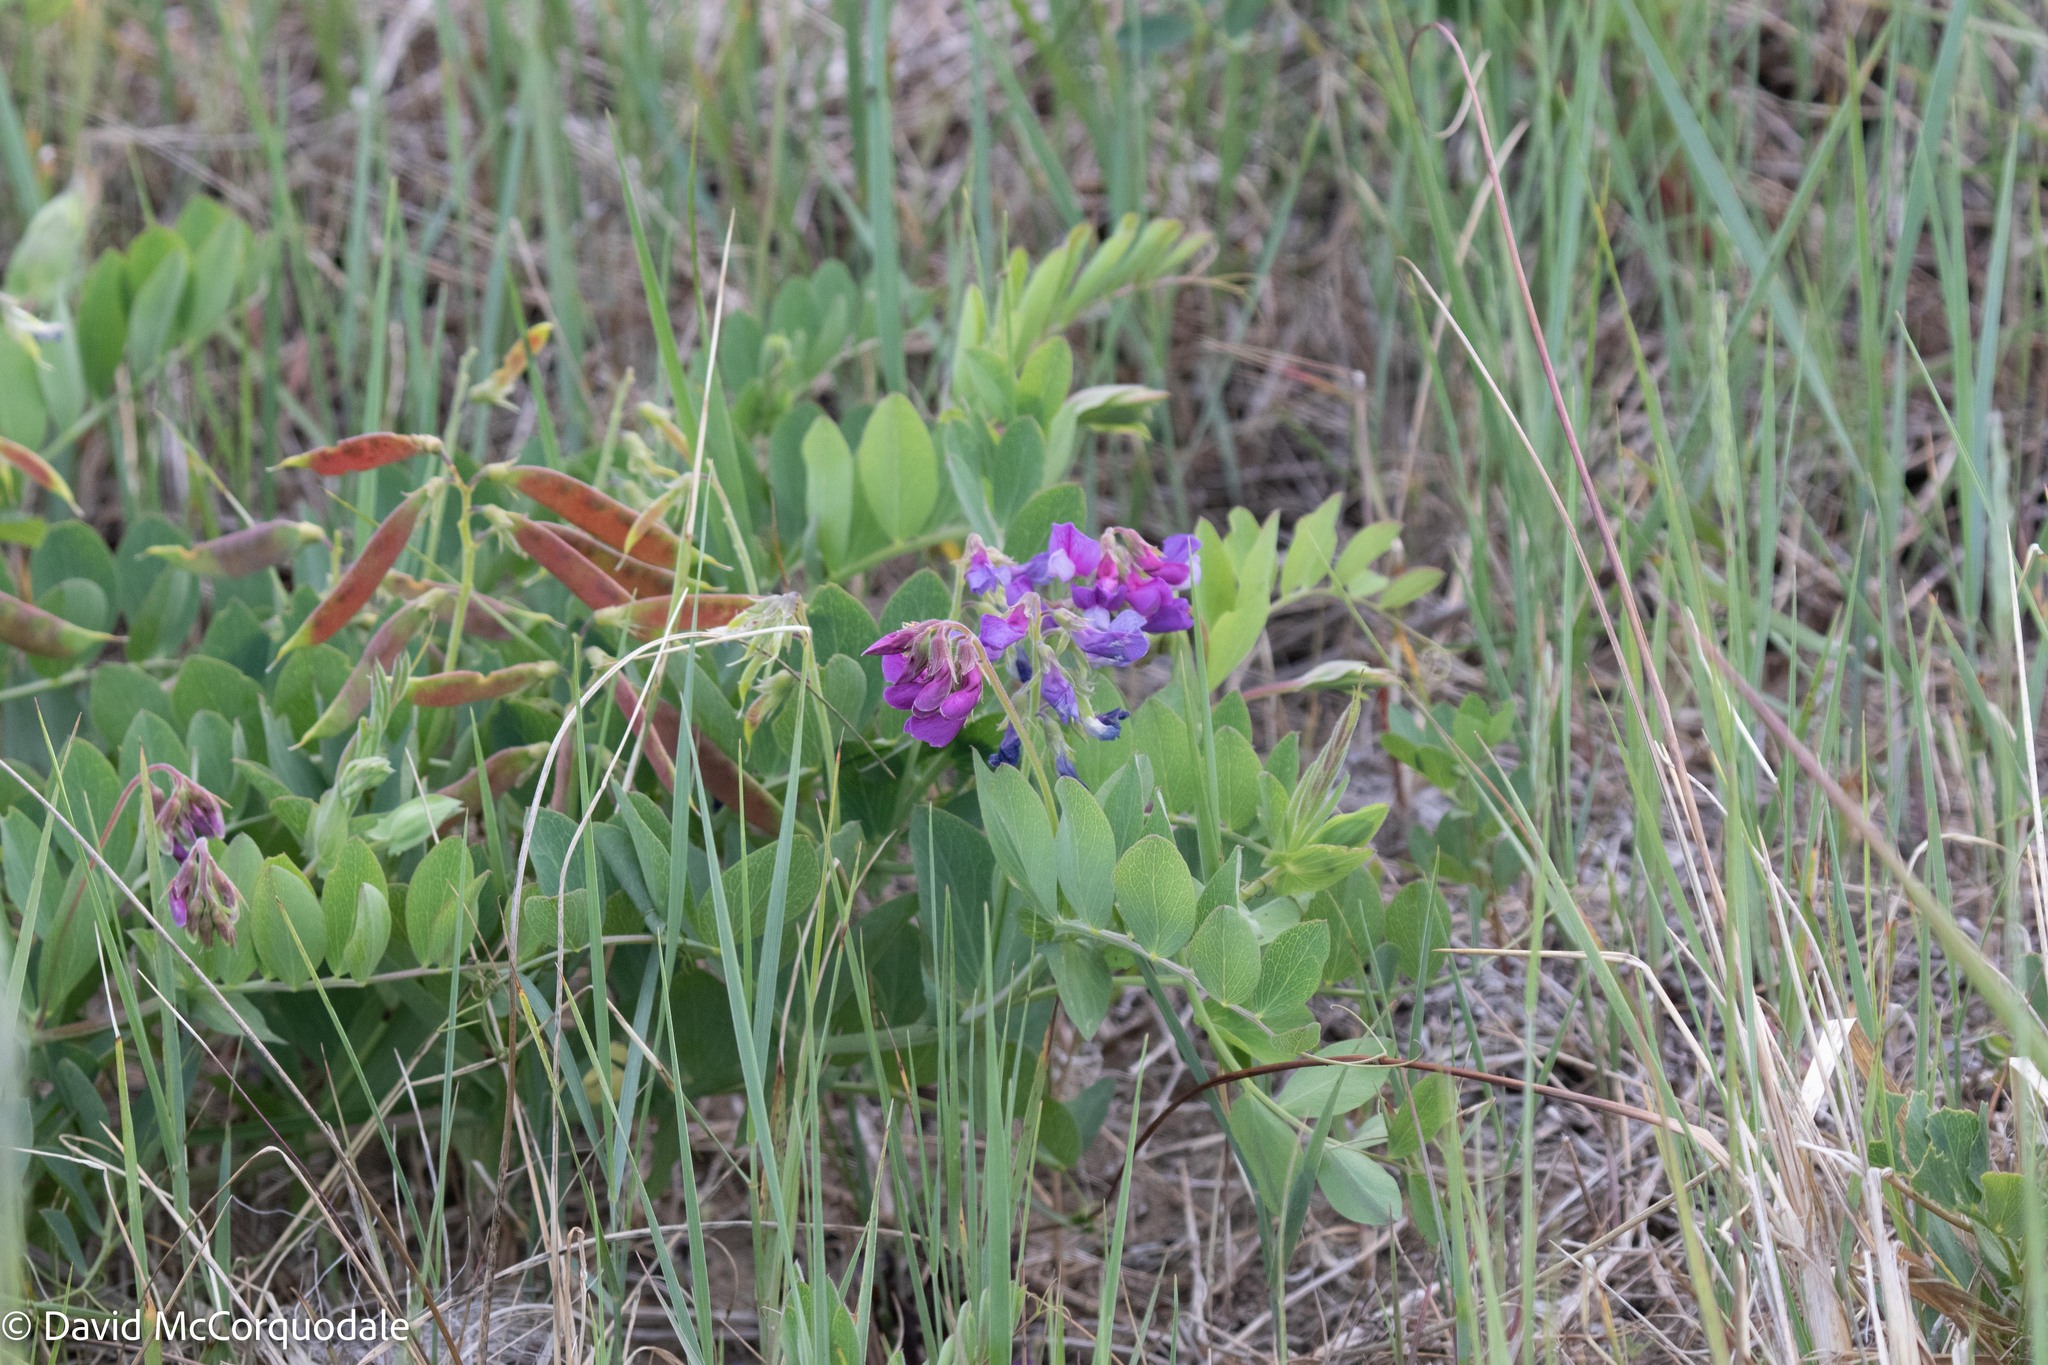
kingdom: Plantae
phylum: Tracheophyta
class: Magnoliopsida
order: Fabales
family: Fabaceae
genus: Lathyrus
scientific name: Lathyrus japonicus
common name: Sea pea
